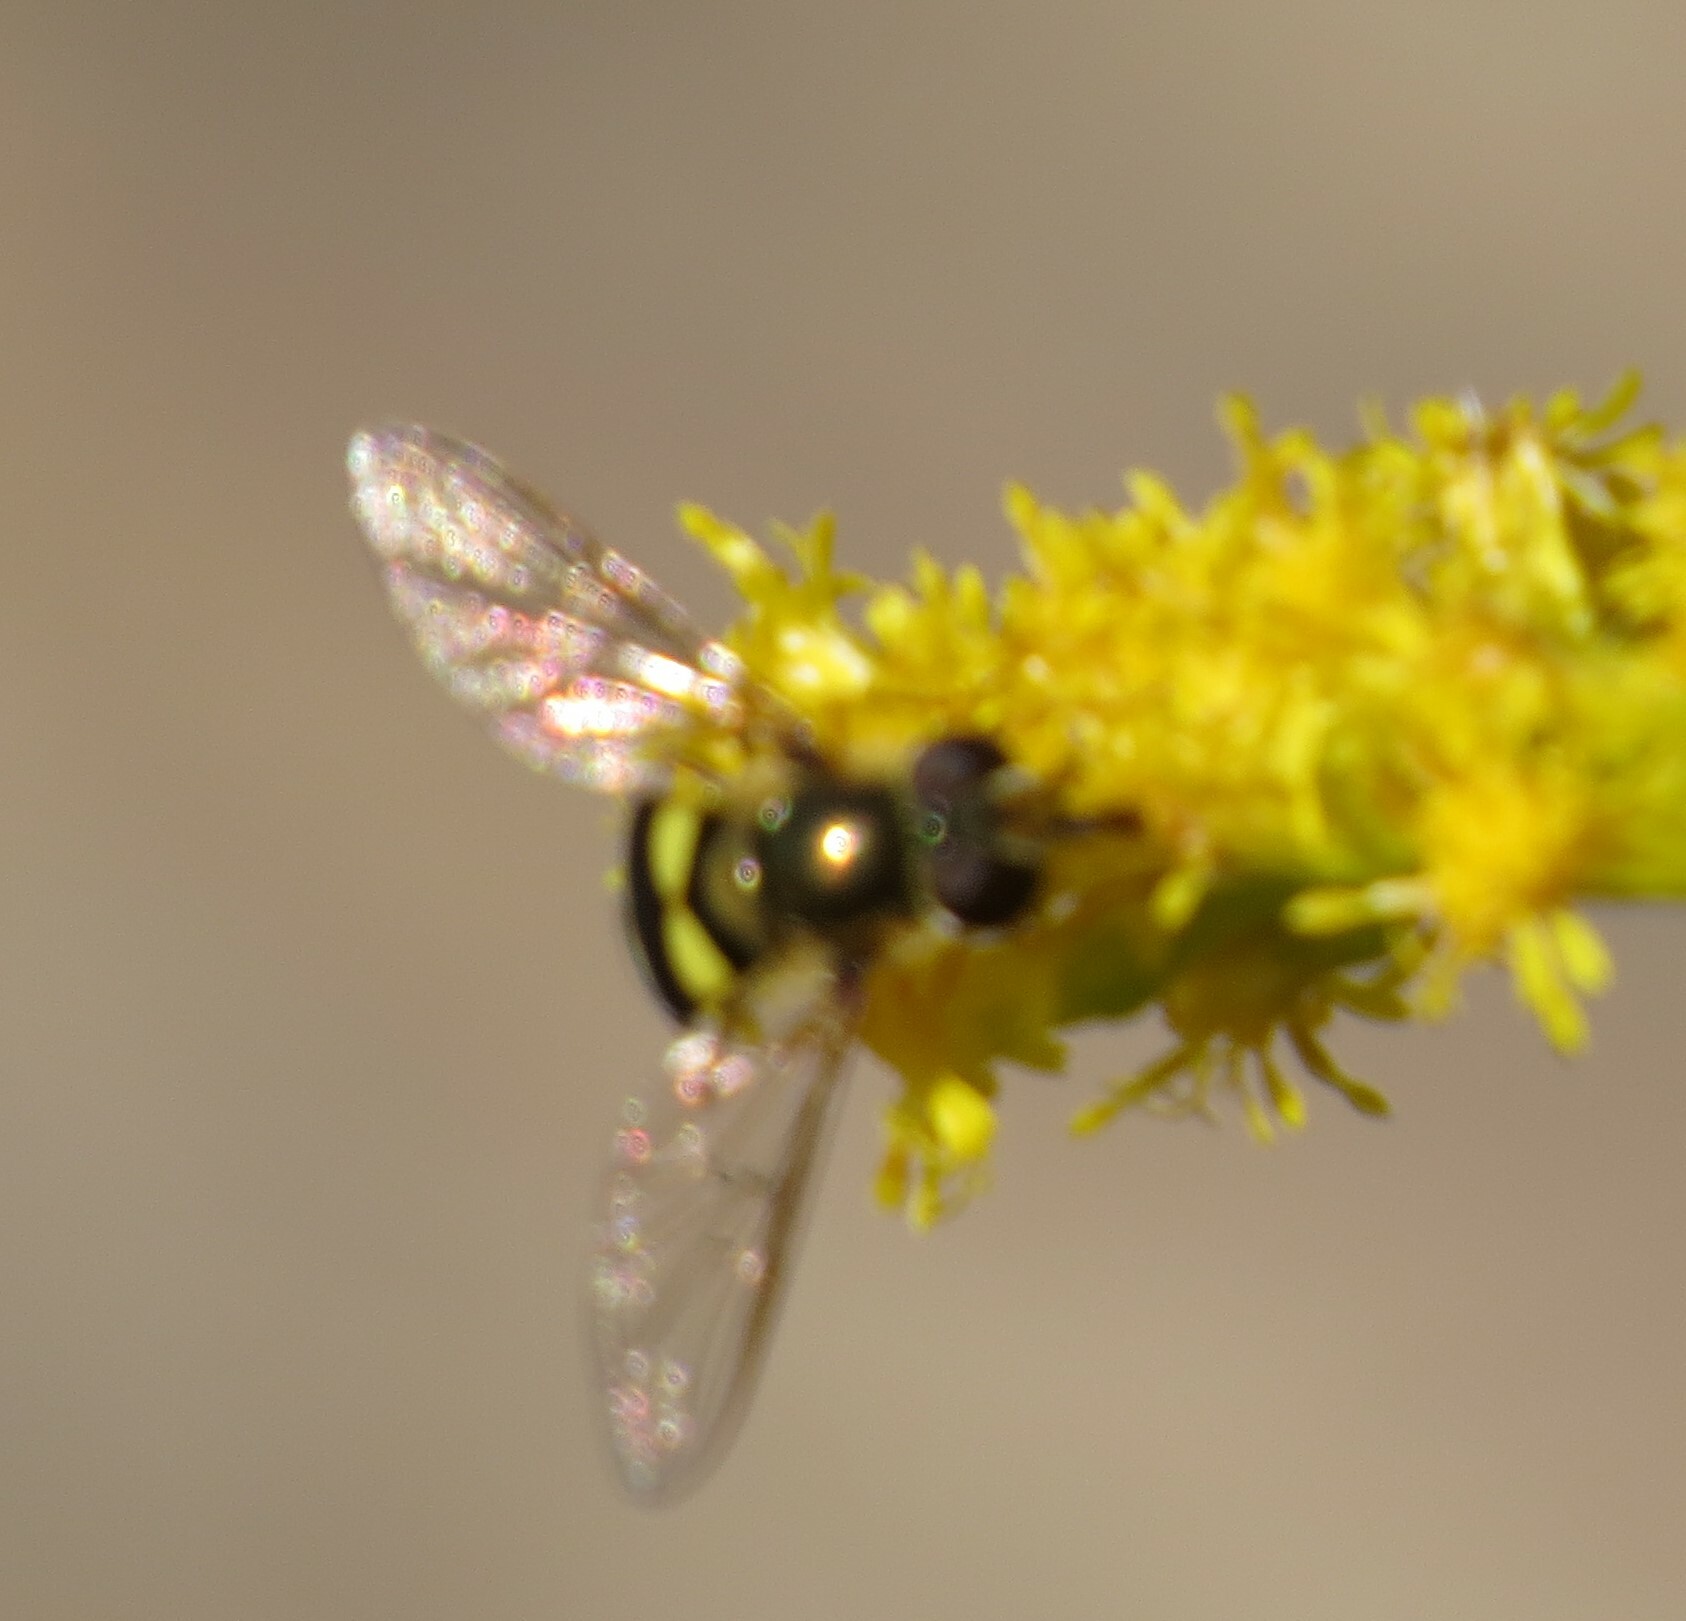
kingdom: Animalia
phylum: Arthropoda
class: Insecta
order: Diptera
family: Syrphidae
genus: Eupeodes
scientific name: Eupeodes
